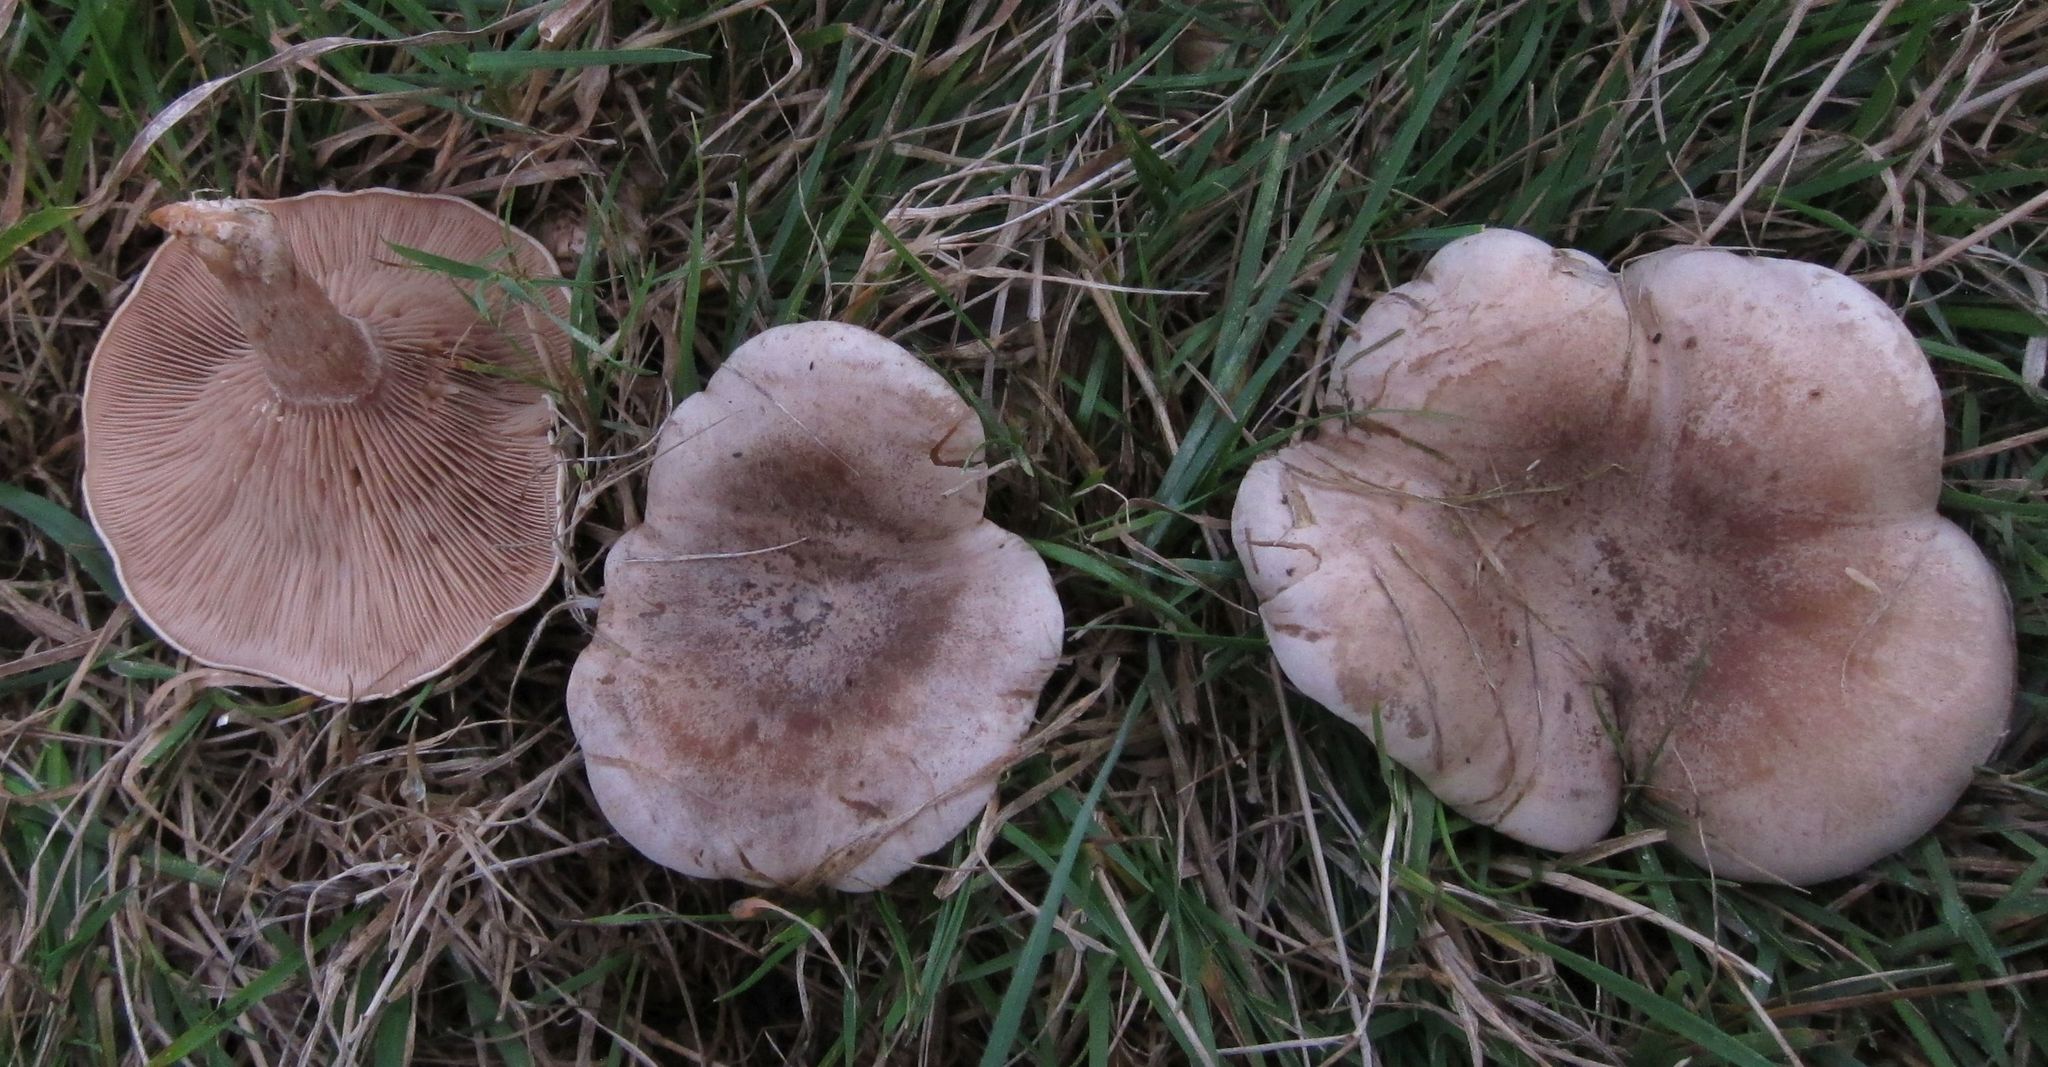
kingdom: Fungi
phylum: Basidiomycota
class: Agaricomycetes
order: Agaricales
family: Tricholomataceae
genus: Lepista
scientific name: Lepista luscina
